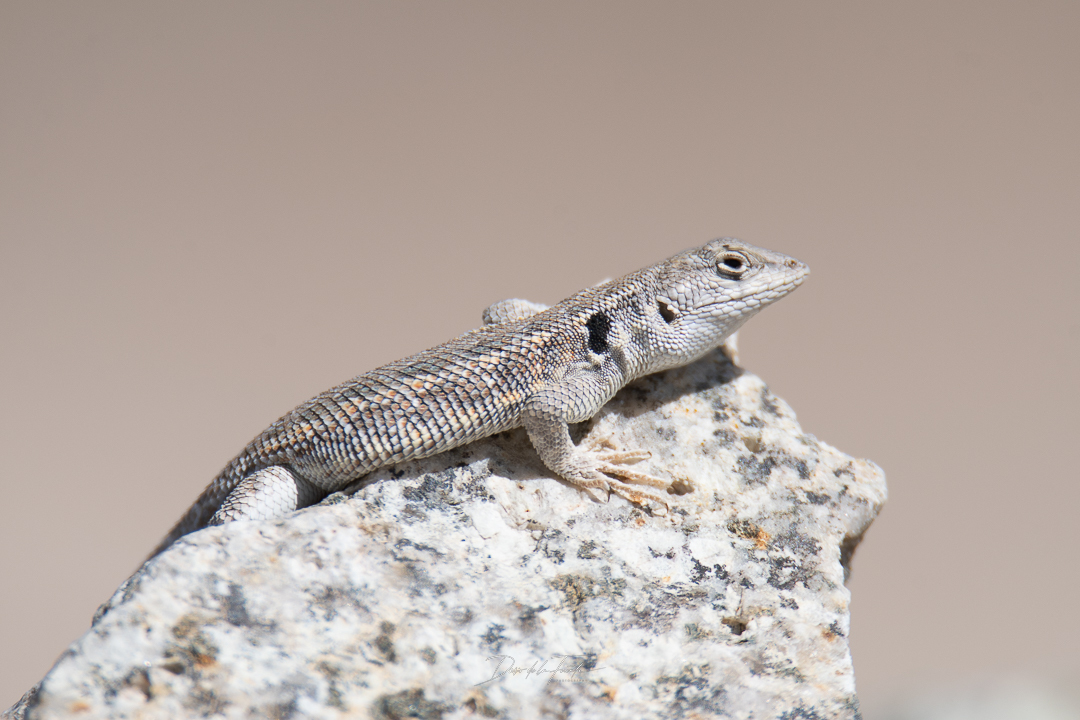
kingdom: Animalia
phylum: Chordata
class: Squamata
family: Liolaemidae
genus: Liolaemus
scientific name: Liolaemus atacamensis
